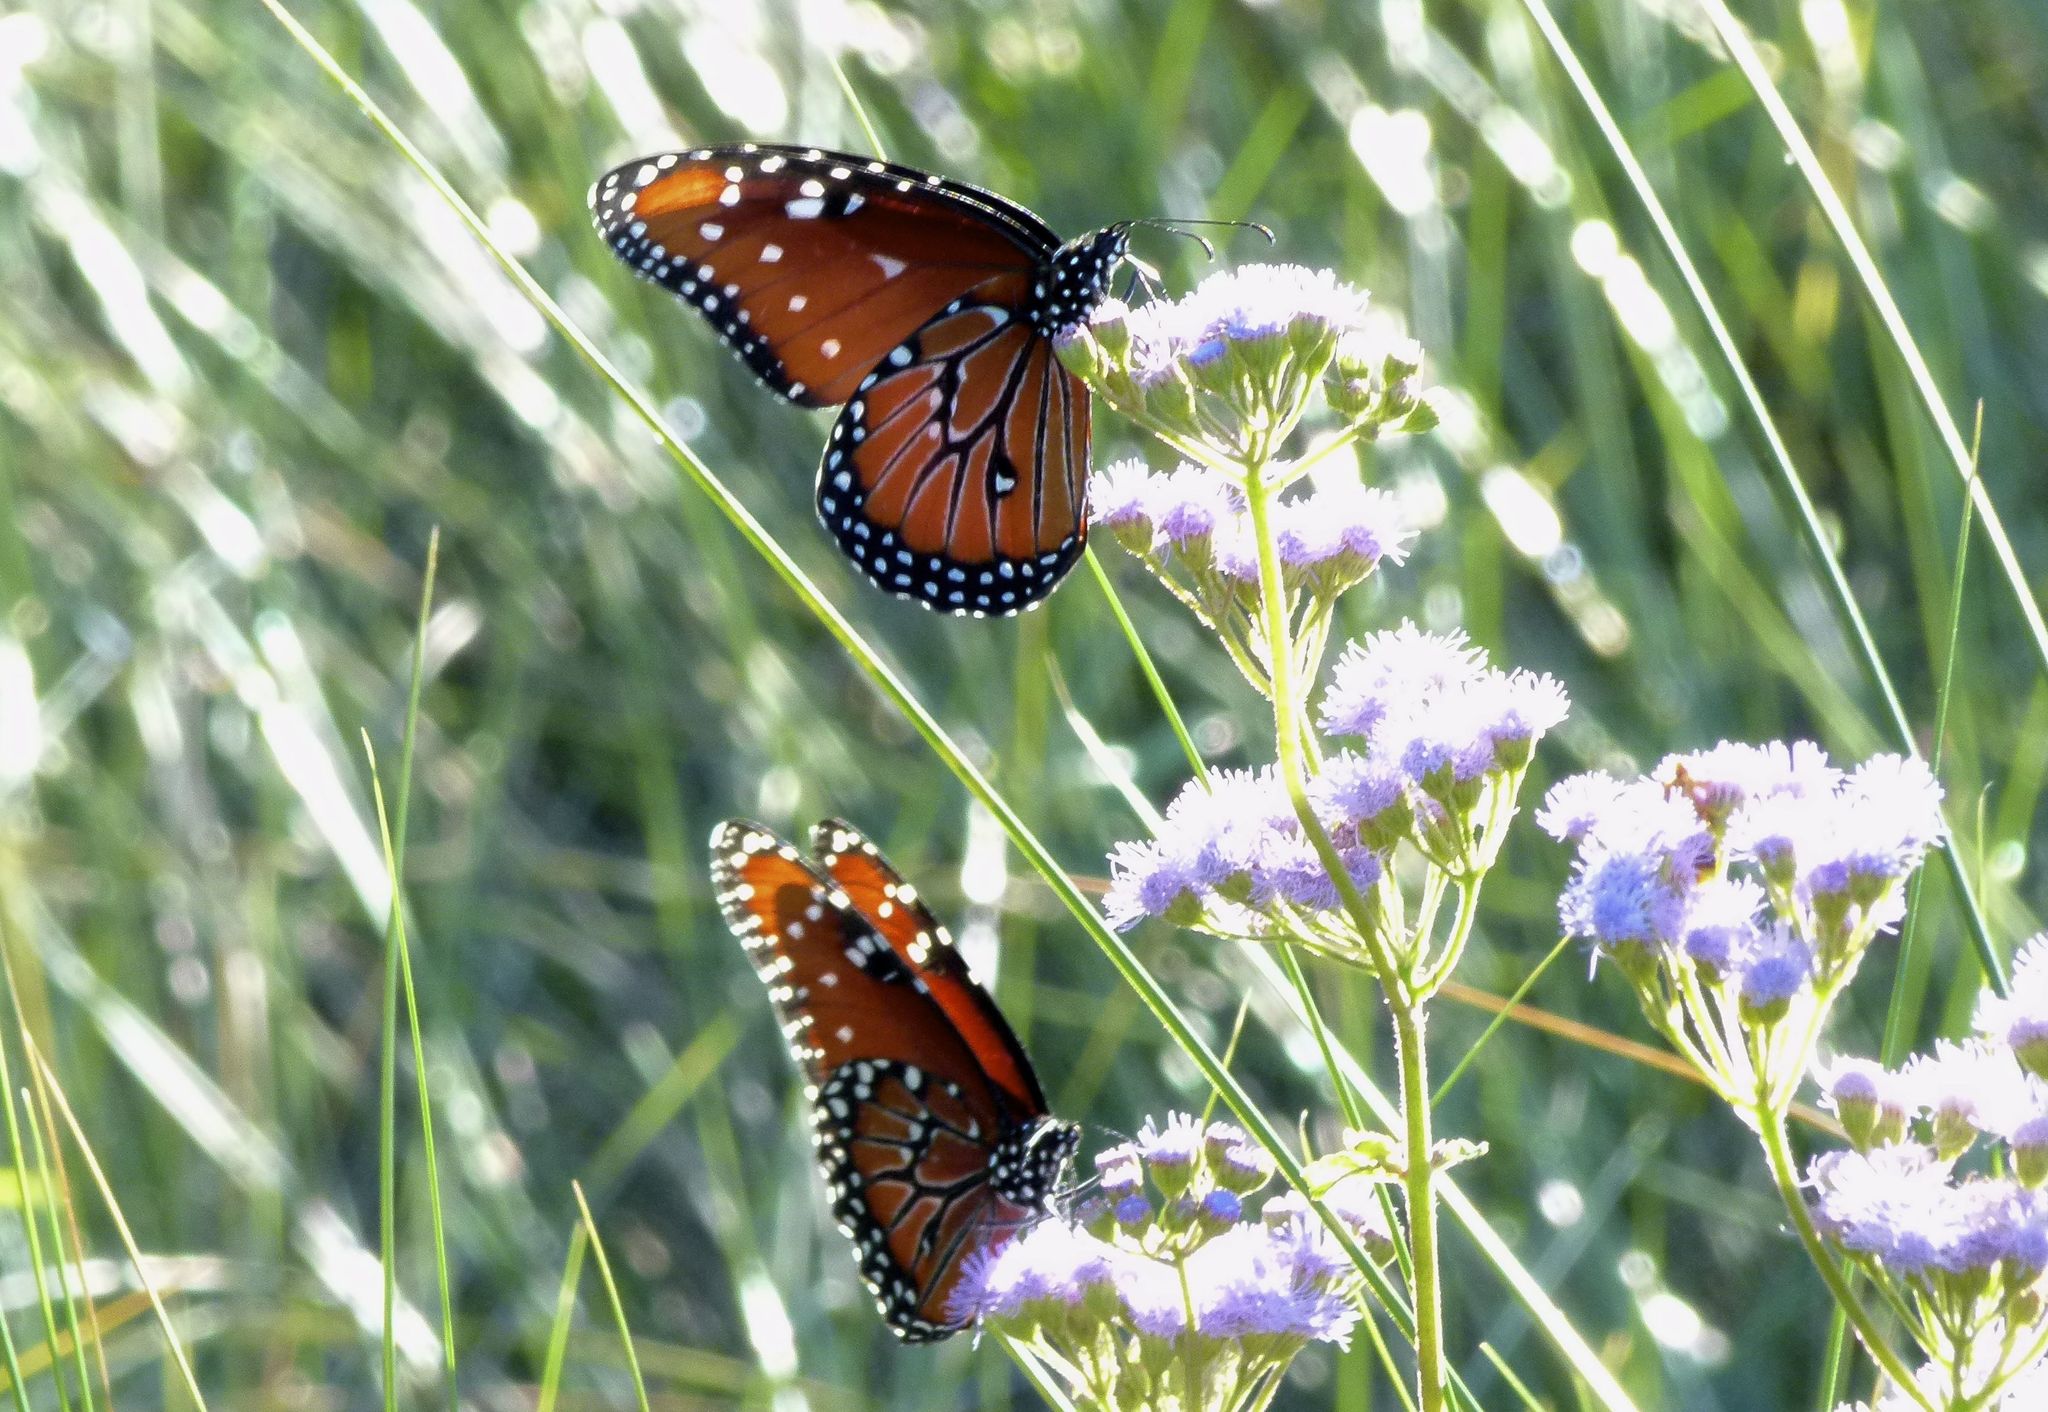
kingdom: Animalia
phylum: Arthropoda
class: Insecta
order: Lepidoptera
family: Nymphalidae
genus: Danaus
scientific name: Danaus gilippus
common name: Queen
